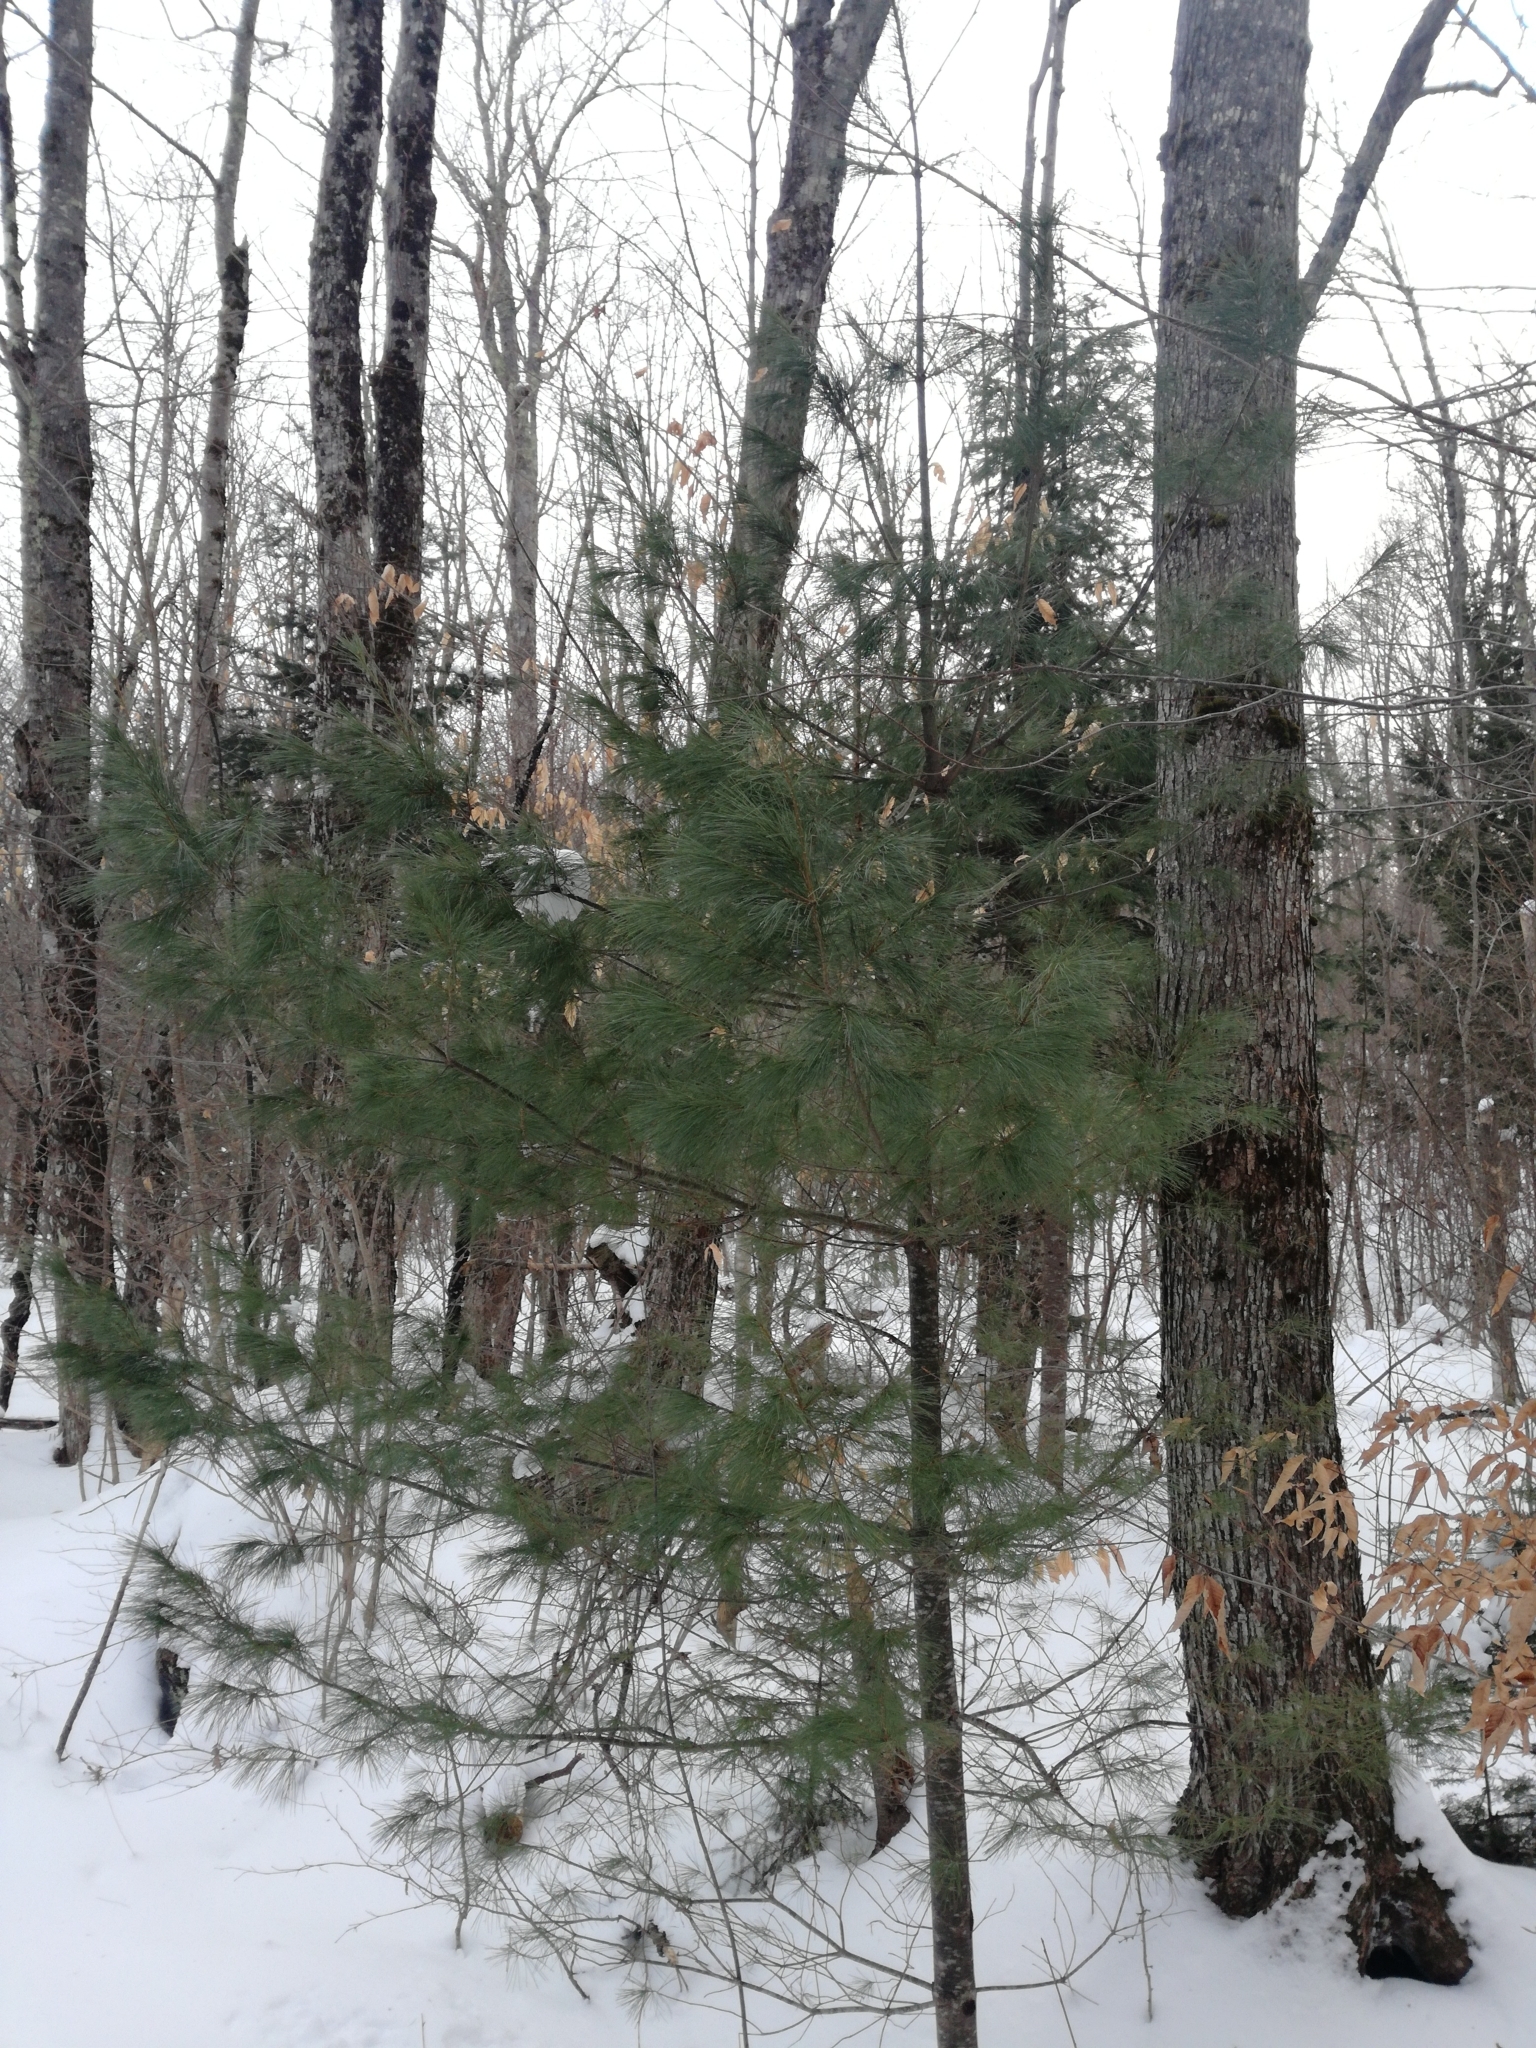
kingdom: Plantae
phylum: Tracheophyta
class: Pinopsida
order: Pinales
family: Pinaceae
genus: Pinus
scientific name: Pinus strobus
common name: Weymouth pine
